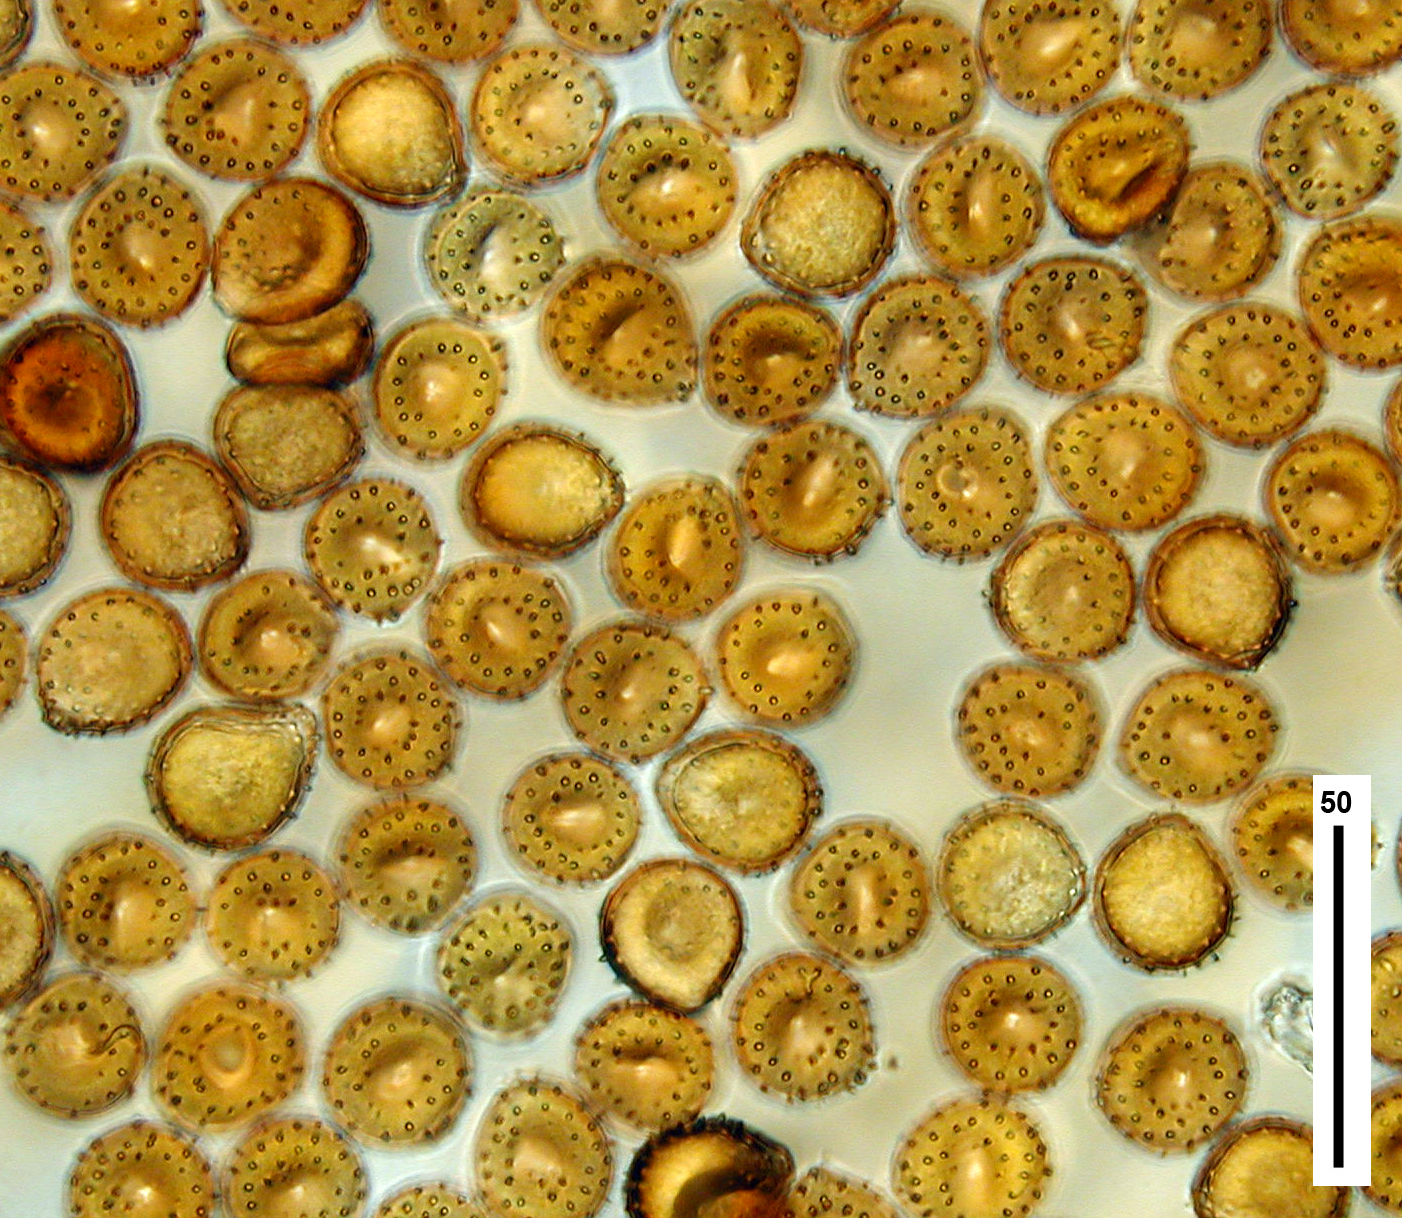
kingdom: Fungi
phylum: Basidiomycota
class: Pucciniomycetes
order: Pucciniales
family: Pucciniaceae
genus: Puccinia
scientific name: Puccinia hydrocotyles
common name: Rusty pennies
